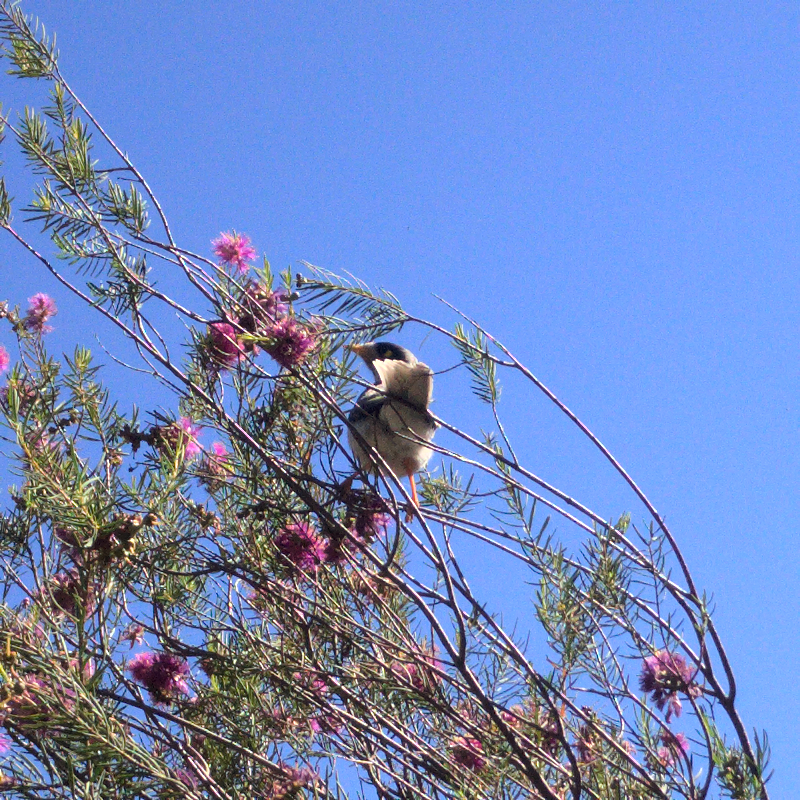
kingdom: Animalia
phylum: Chordata
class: Aves
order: Passeriformes
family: Meliphagidae
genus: Manorina
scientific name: Manorina melanocephala
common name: Noisy miner
